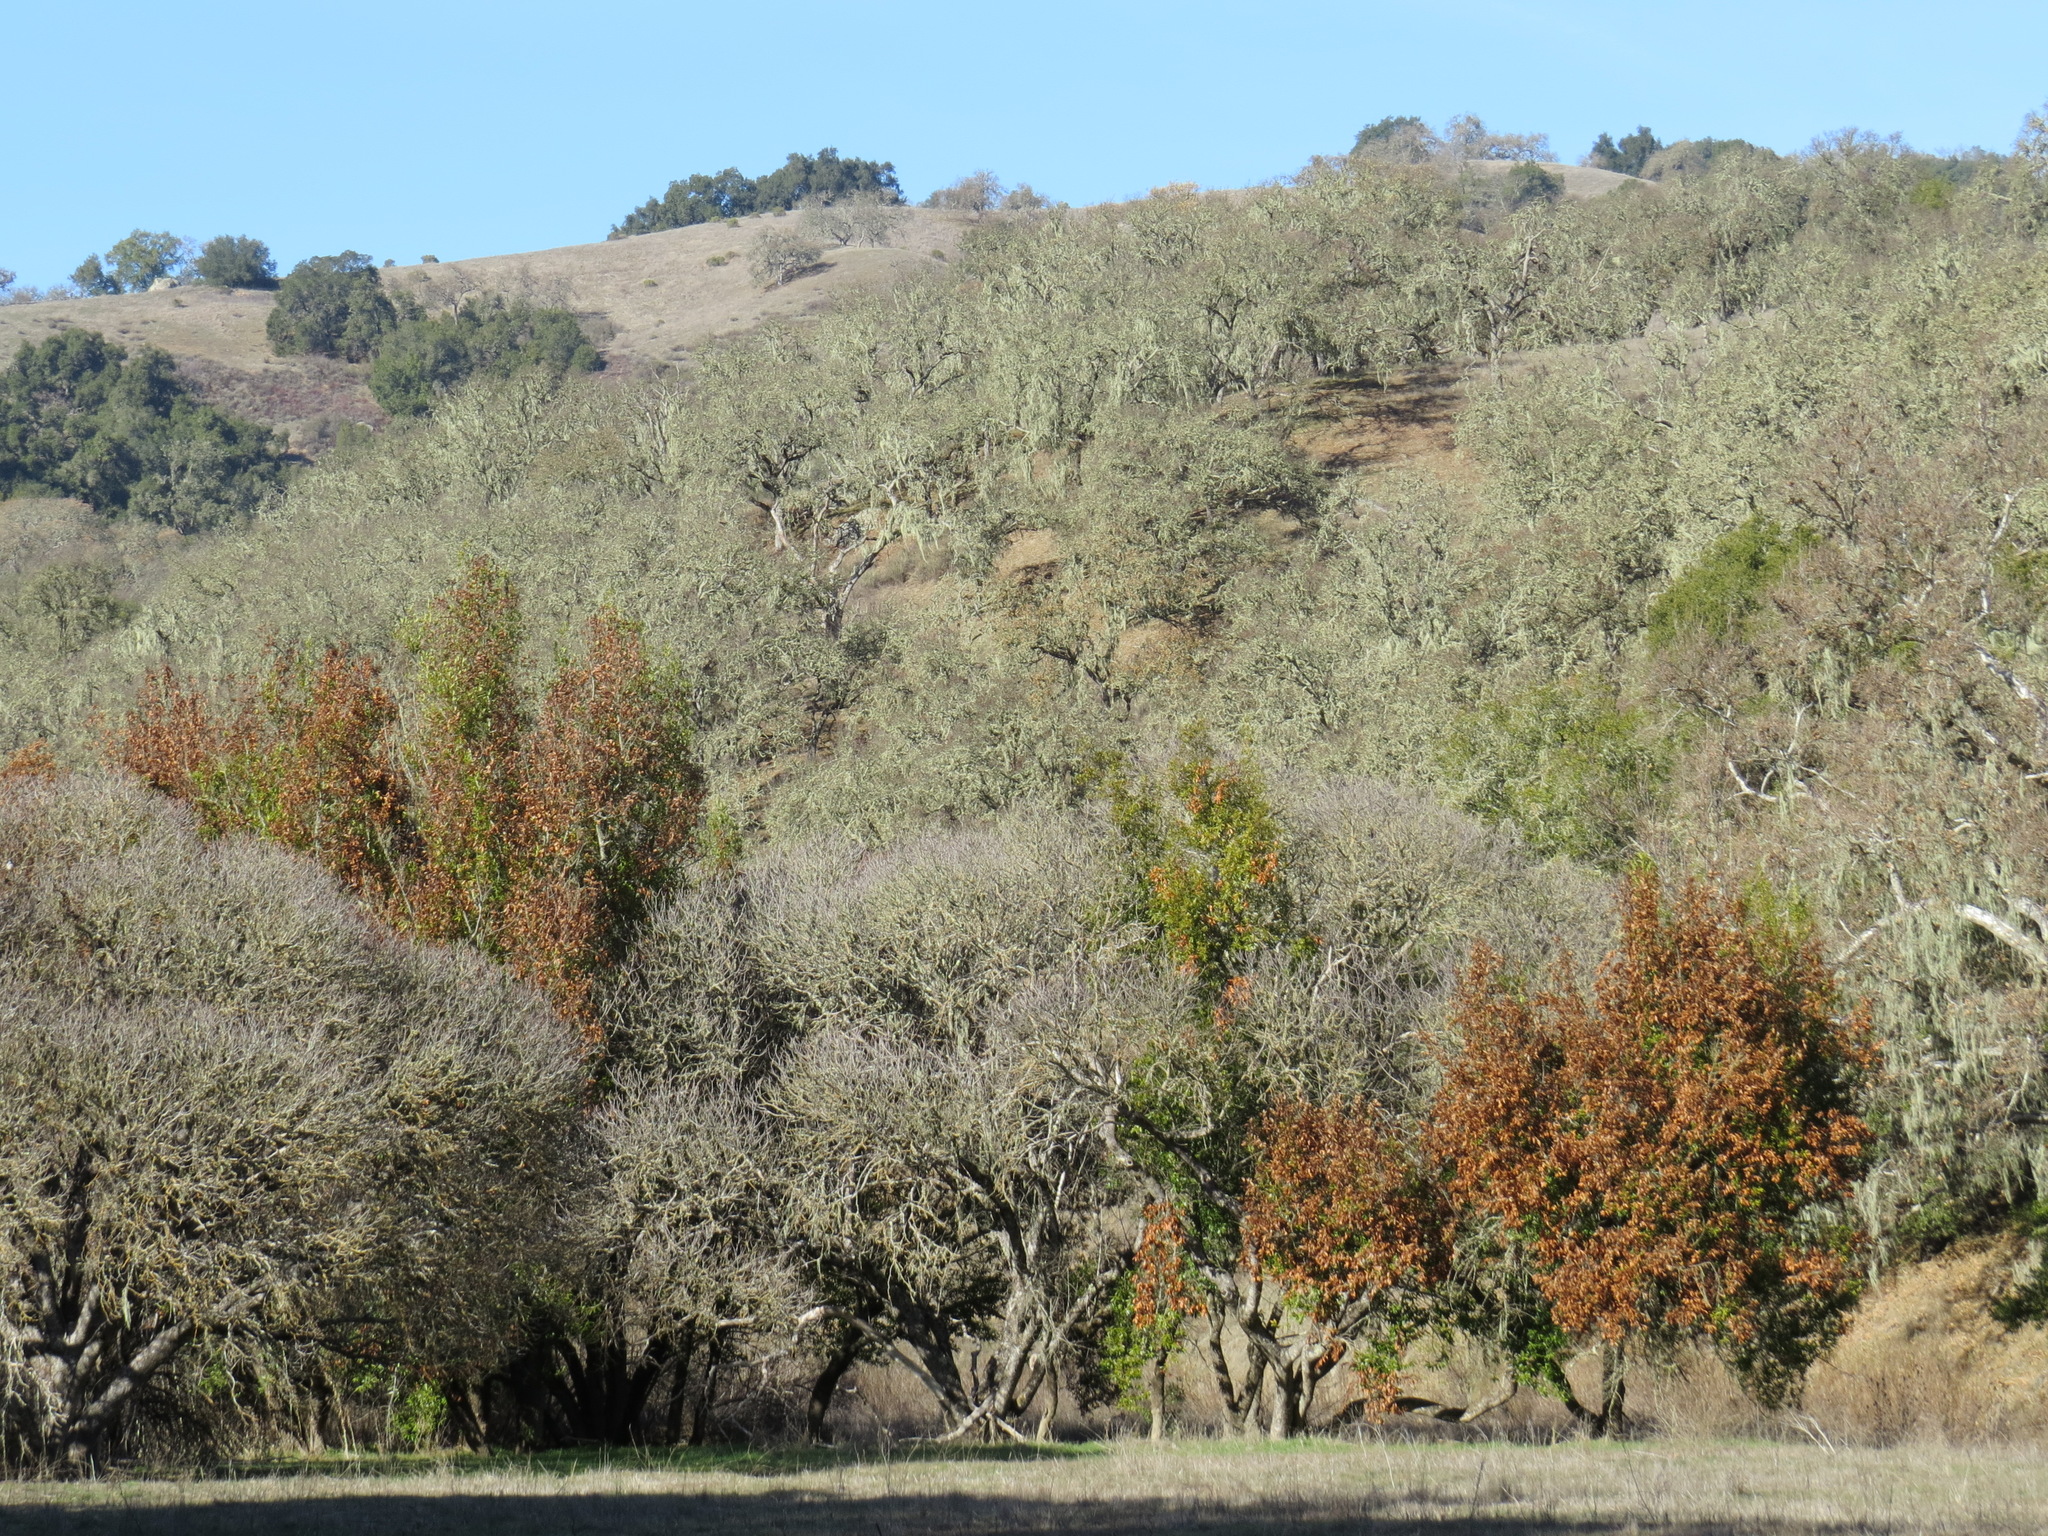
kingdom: Plantae
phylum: Tracheophyta
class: Magnoliopsida
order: Laurales
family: Lauraceae
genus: Umbellularia
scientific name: Umbellularia californica
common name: California bay
